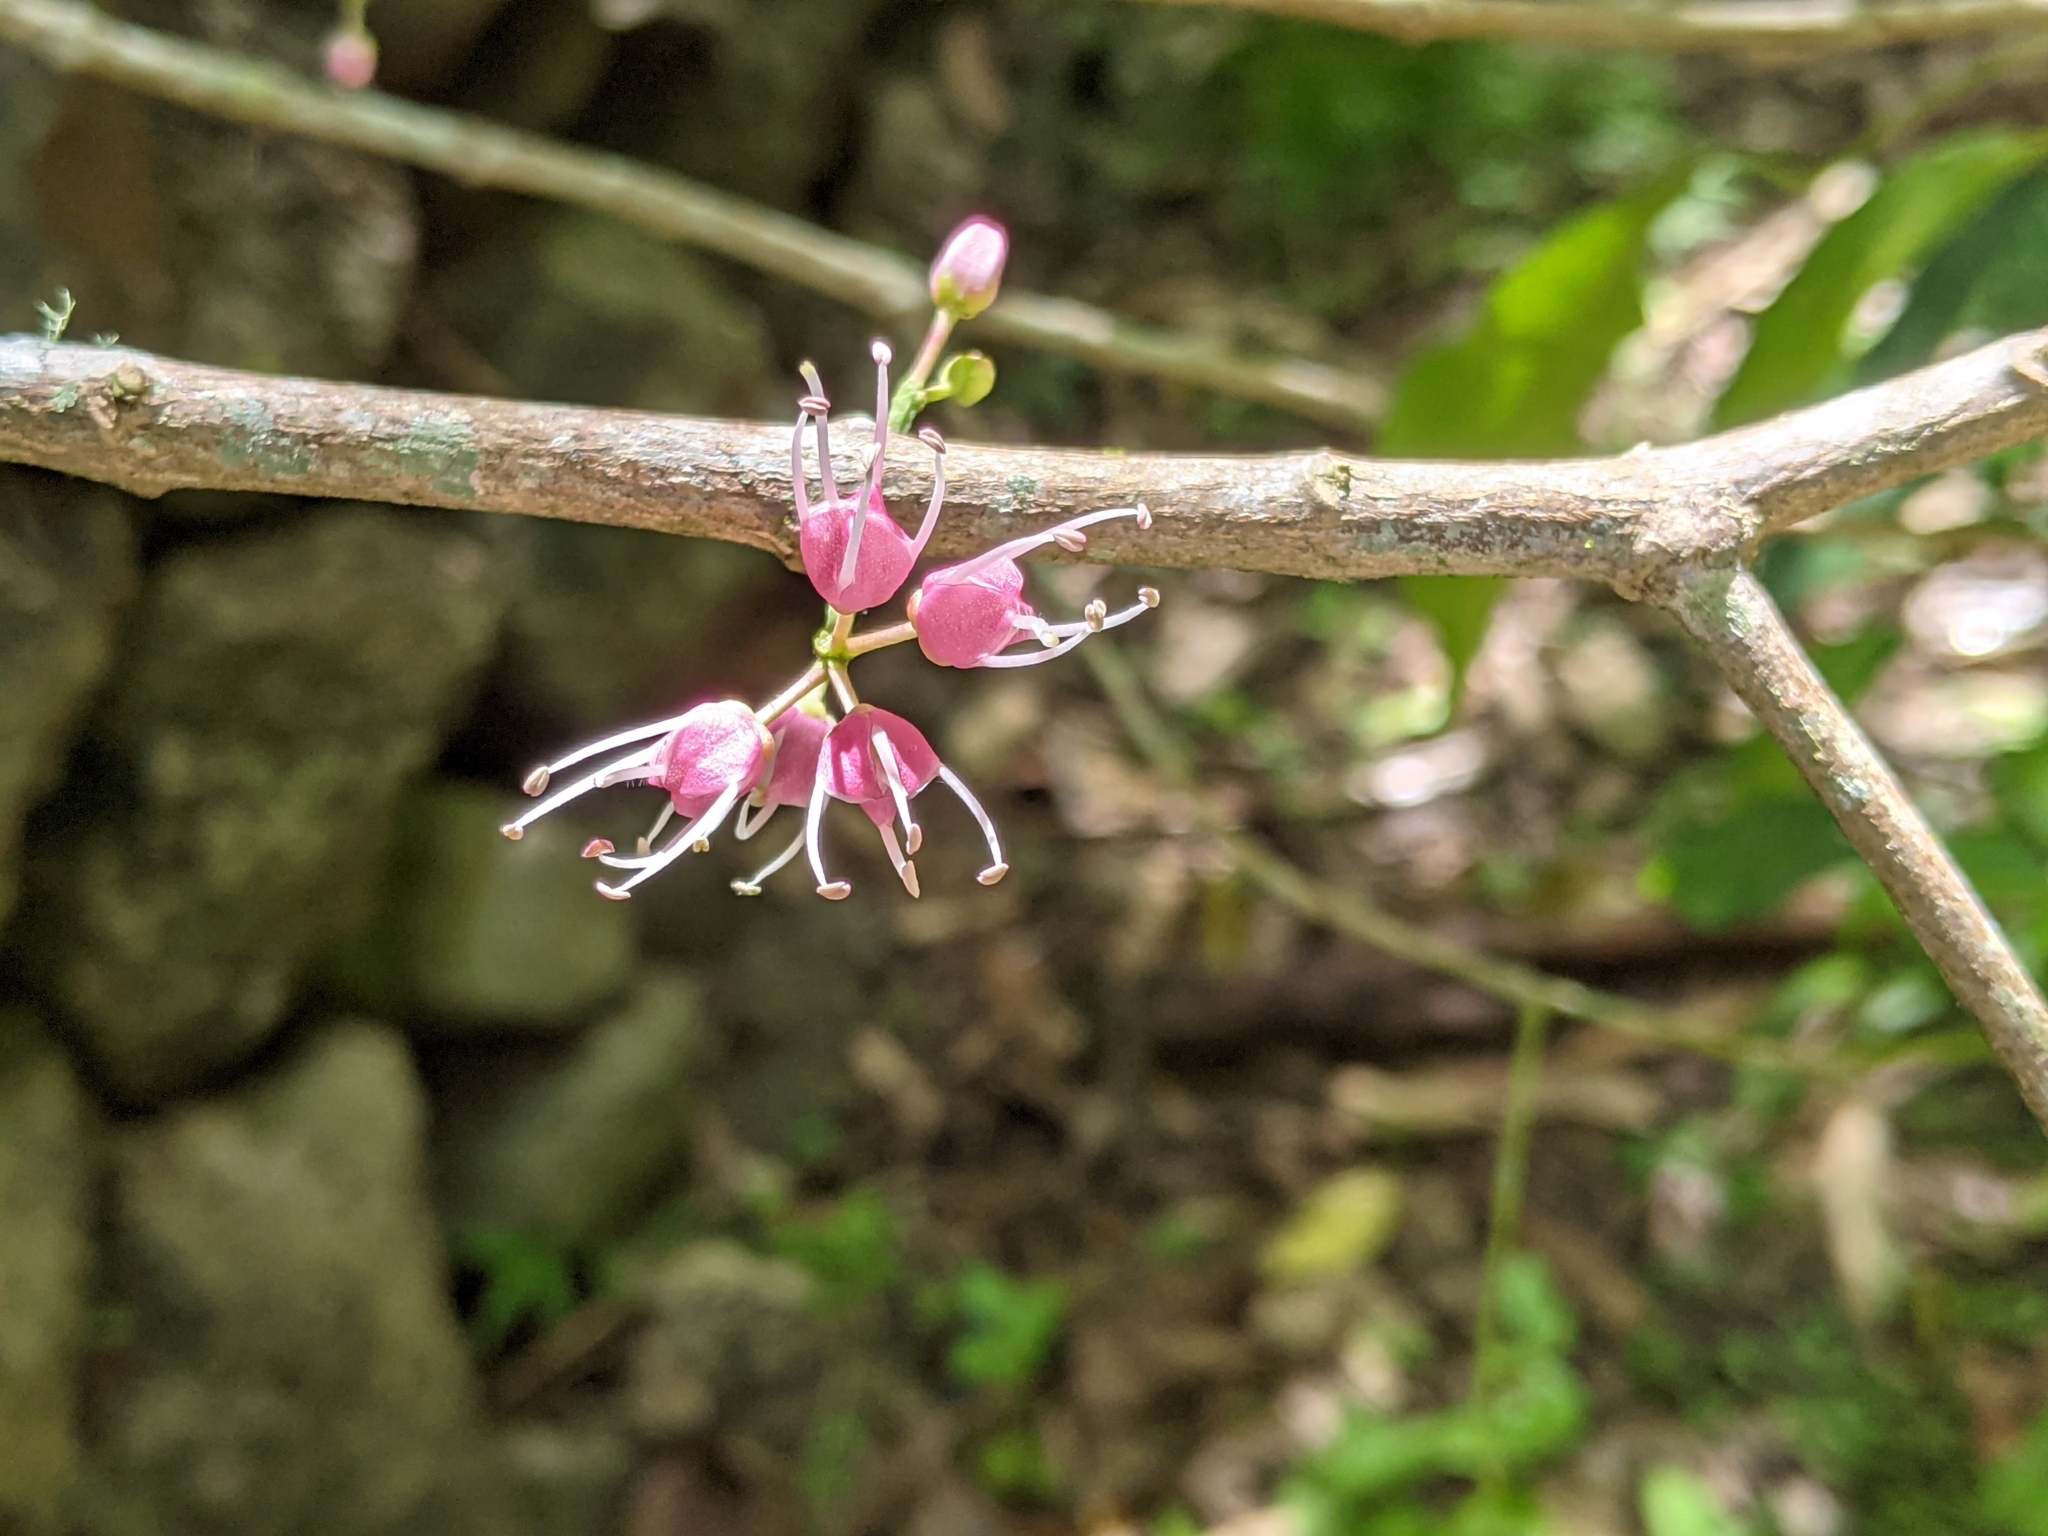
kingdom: Plantae
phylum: Tracheophyta
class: Magnoliopsida
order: Sapindales
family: Rutaceae
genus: Melicope
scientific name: Melicope rubra
